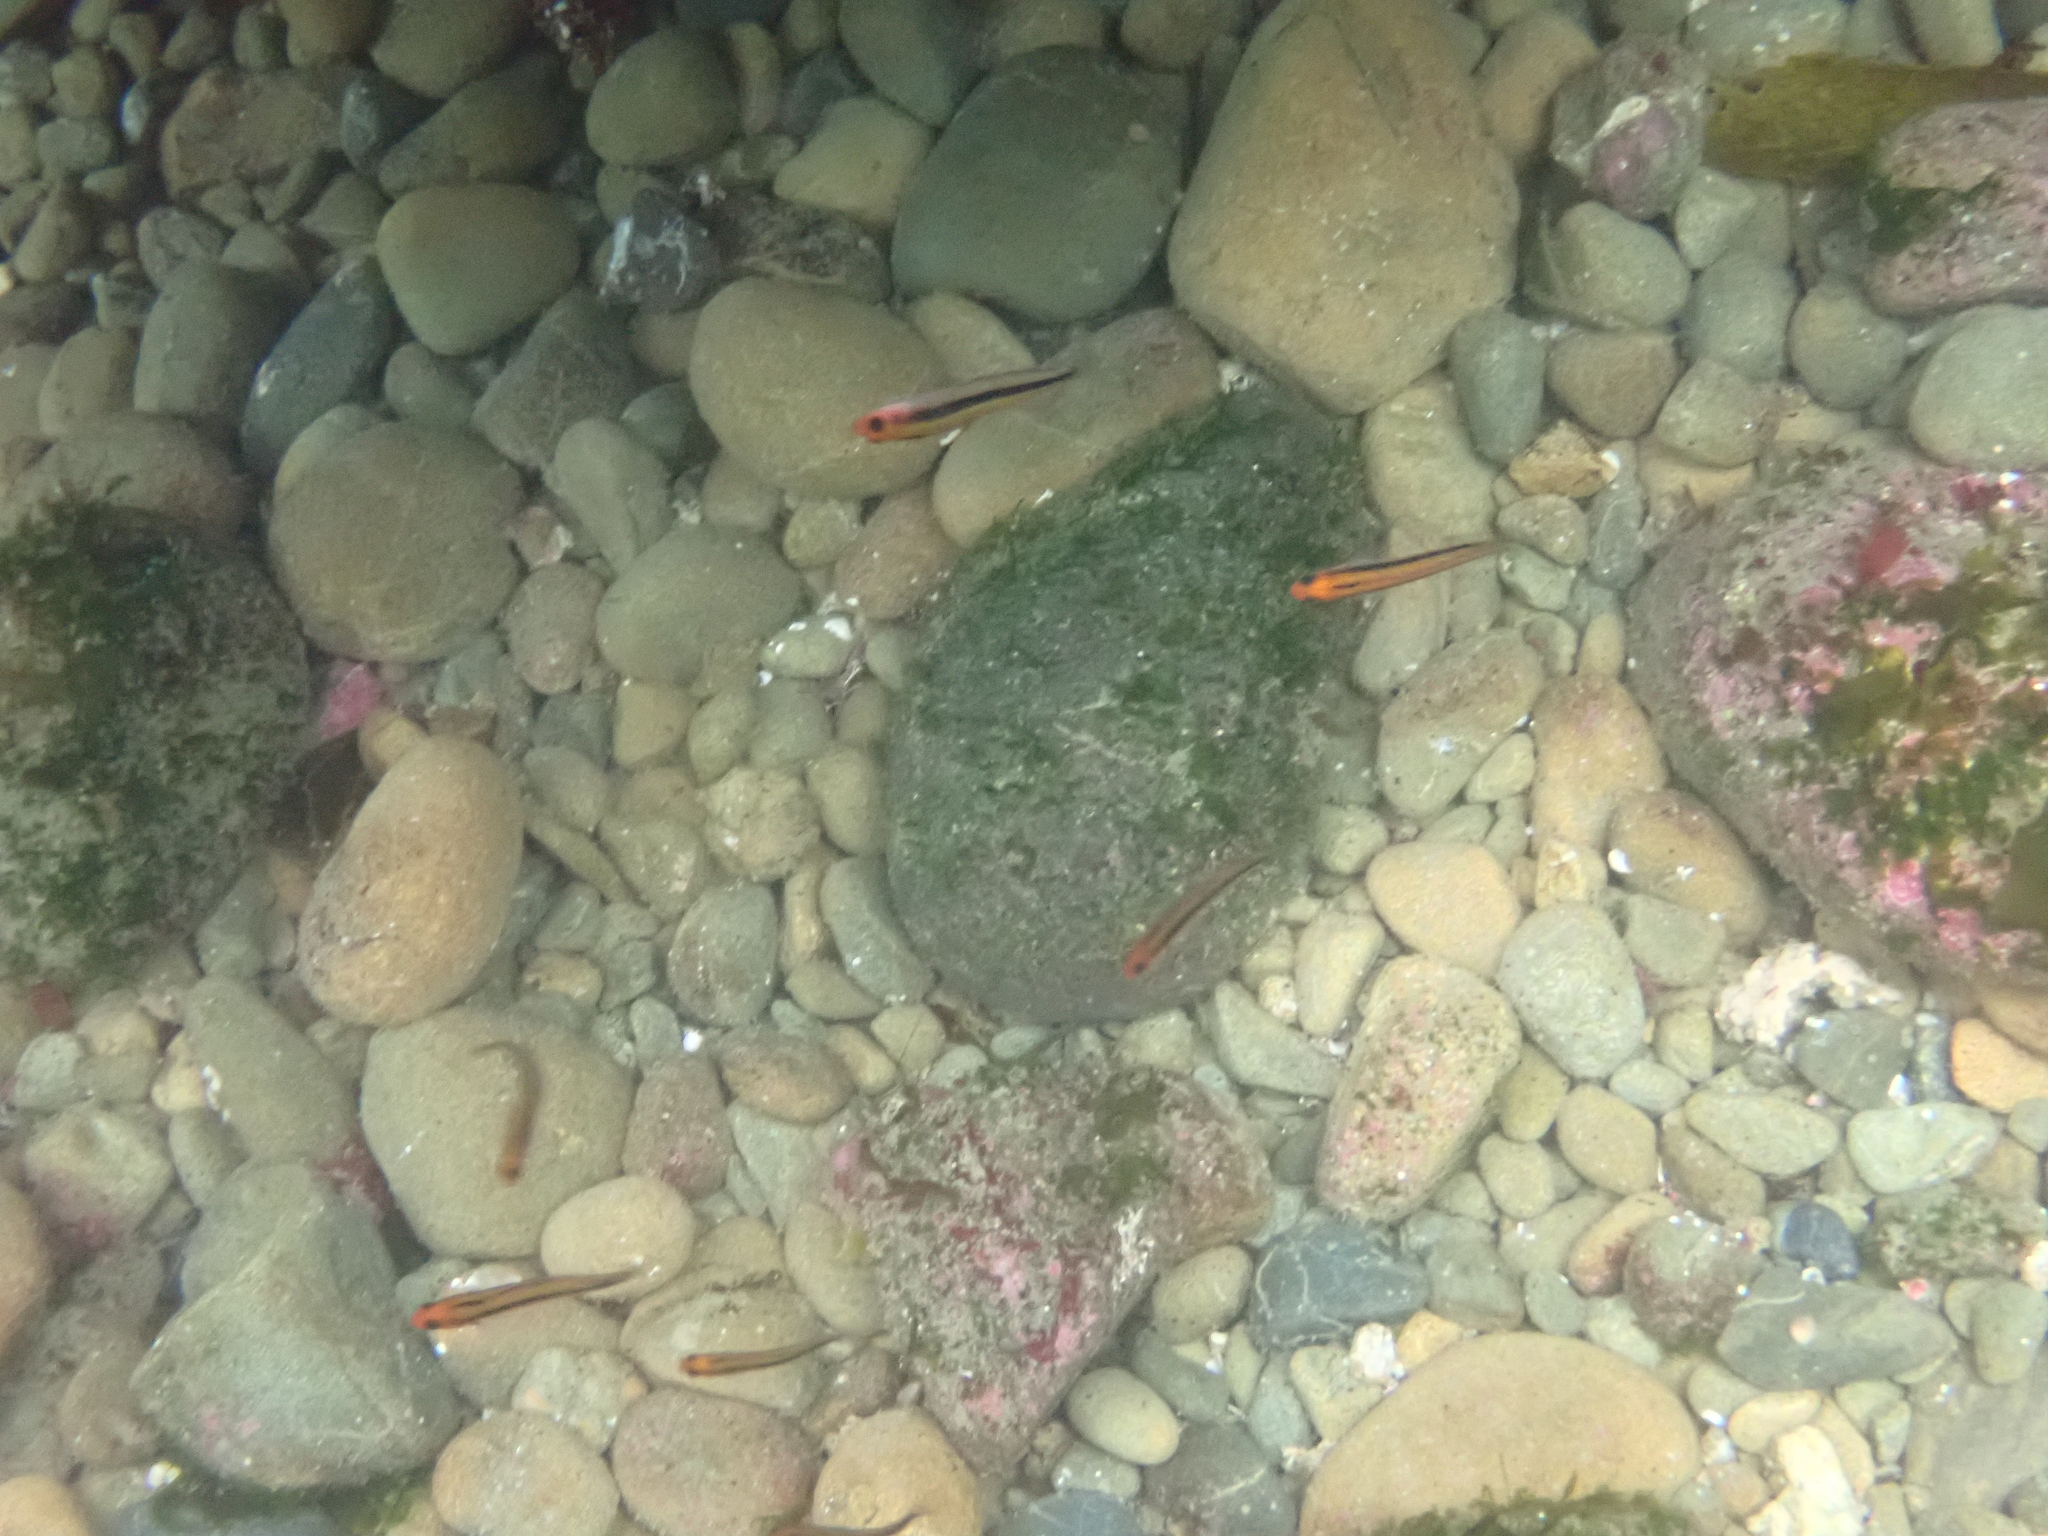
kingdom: Animalia
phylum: Chordata
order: Perciformes
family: Tripterygiidae
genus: Forsterygion
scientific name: Forsterygion maryannae
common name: Oblique-swimming triplefin
